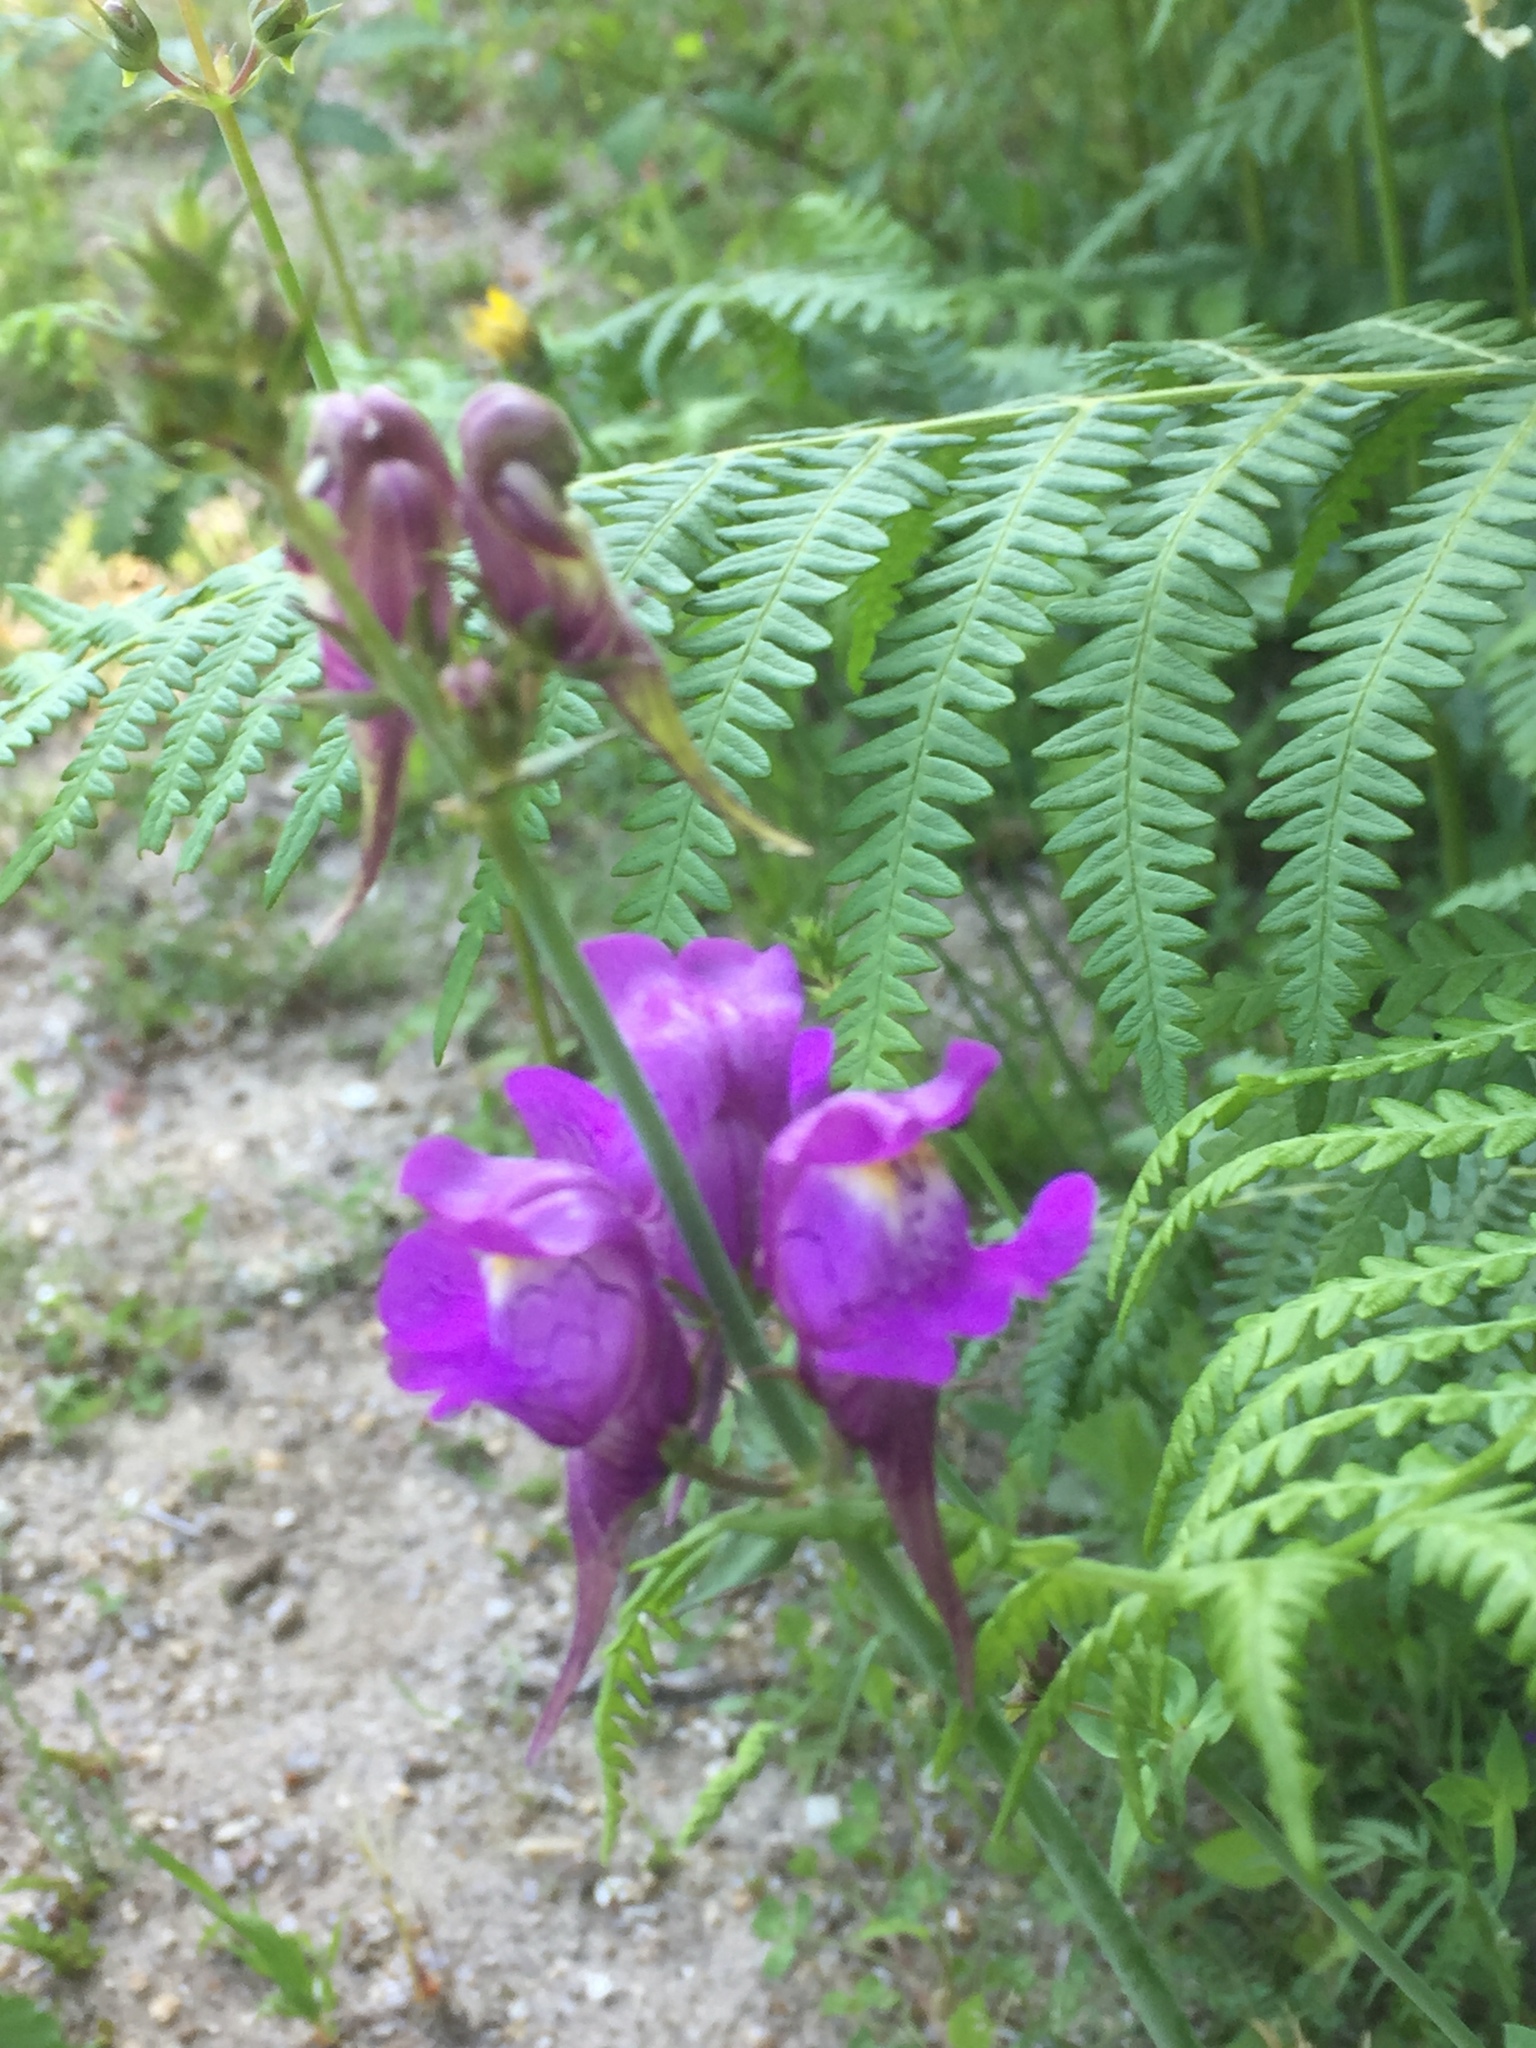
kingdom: Plantae
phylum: Tracheophyta
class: Magnoliopsida
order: Lamiales
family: Plantaginaceae
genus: Linaria
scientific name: Linaria triornithophora
